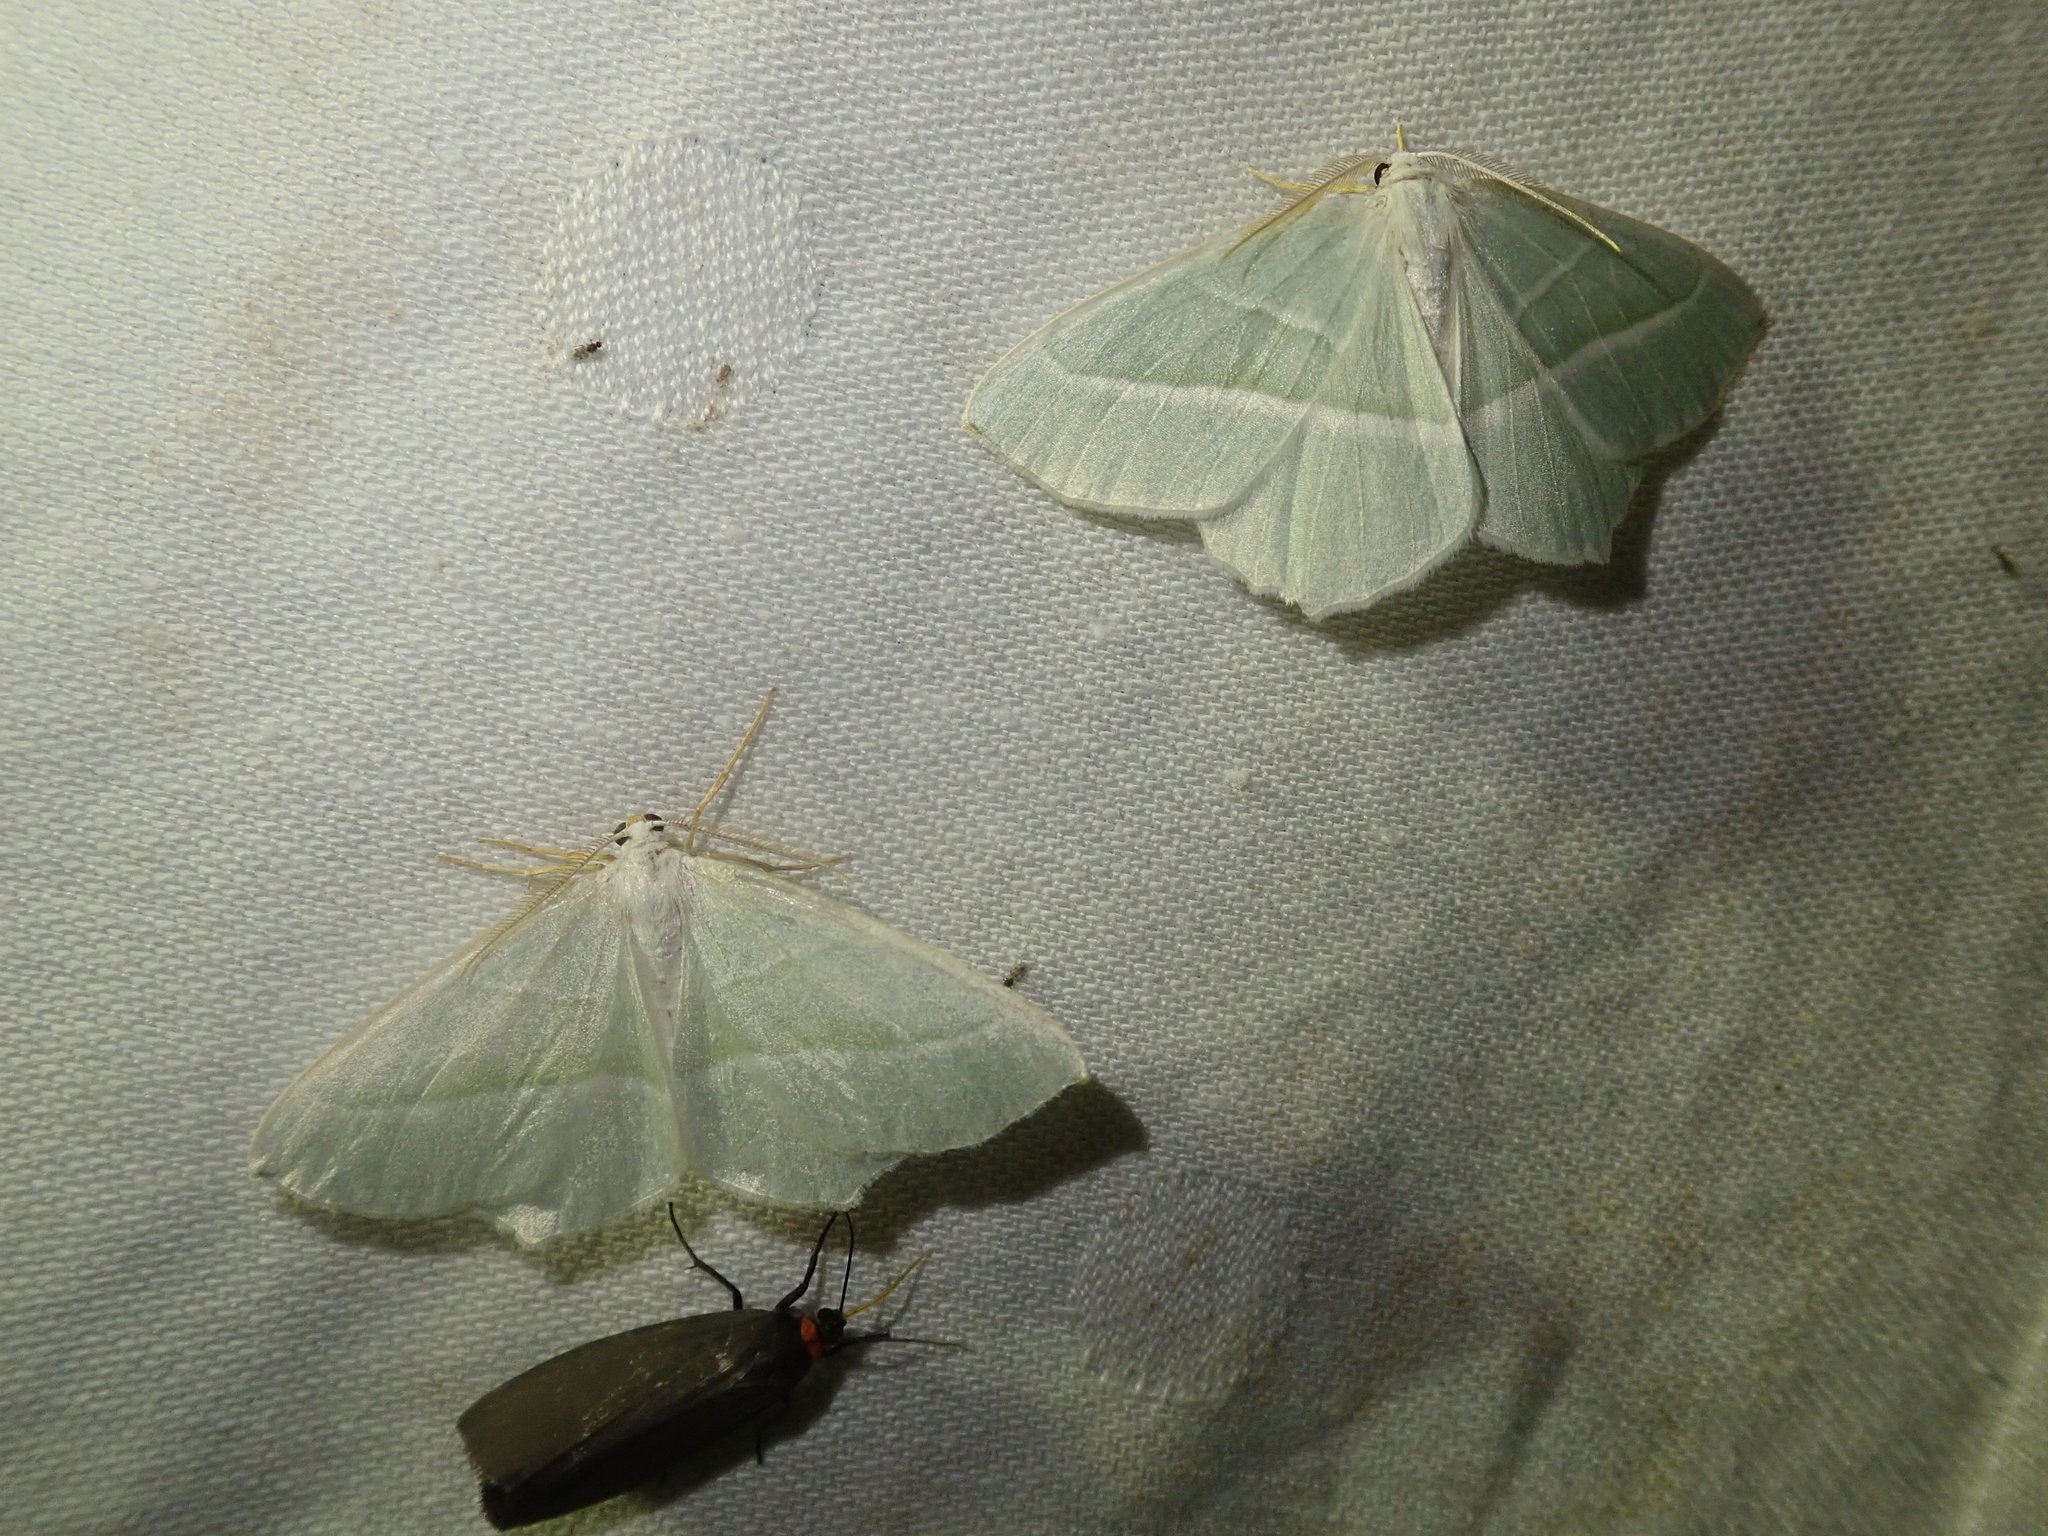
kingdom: Animalia
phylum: Arthropoda
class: Insecta
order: Lepidoptera
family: Geometridae
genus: Campaea
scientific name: Campaea margaritaria
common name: Light emerald
